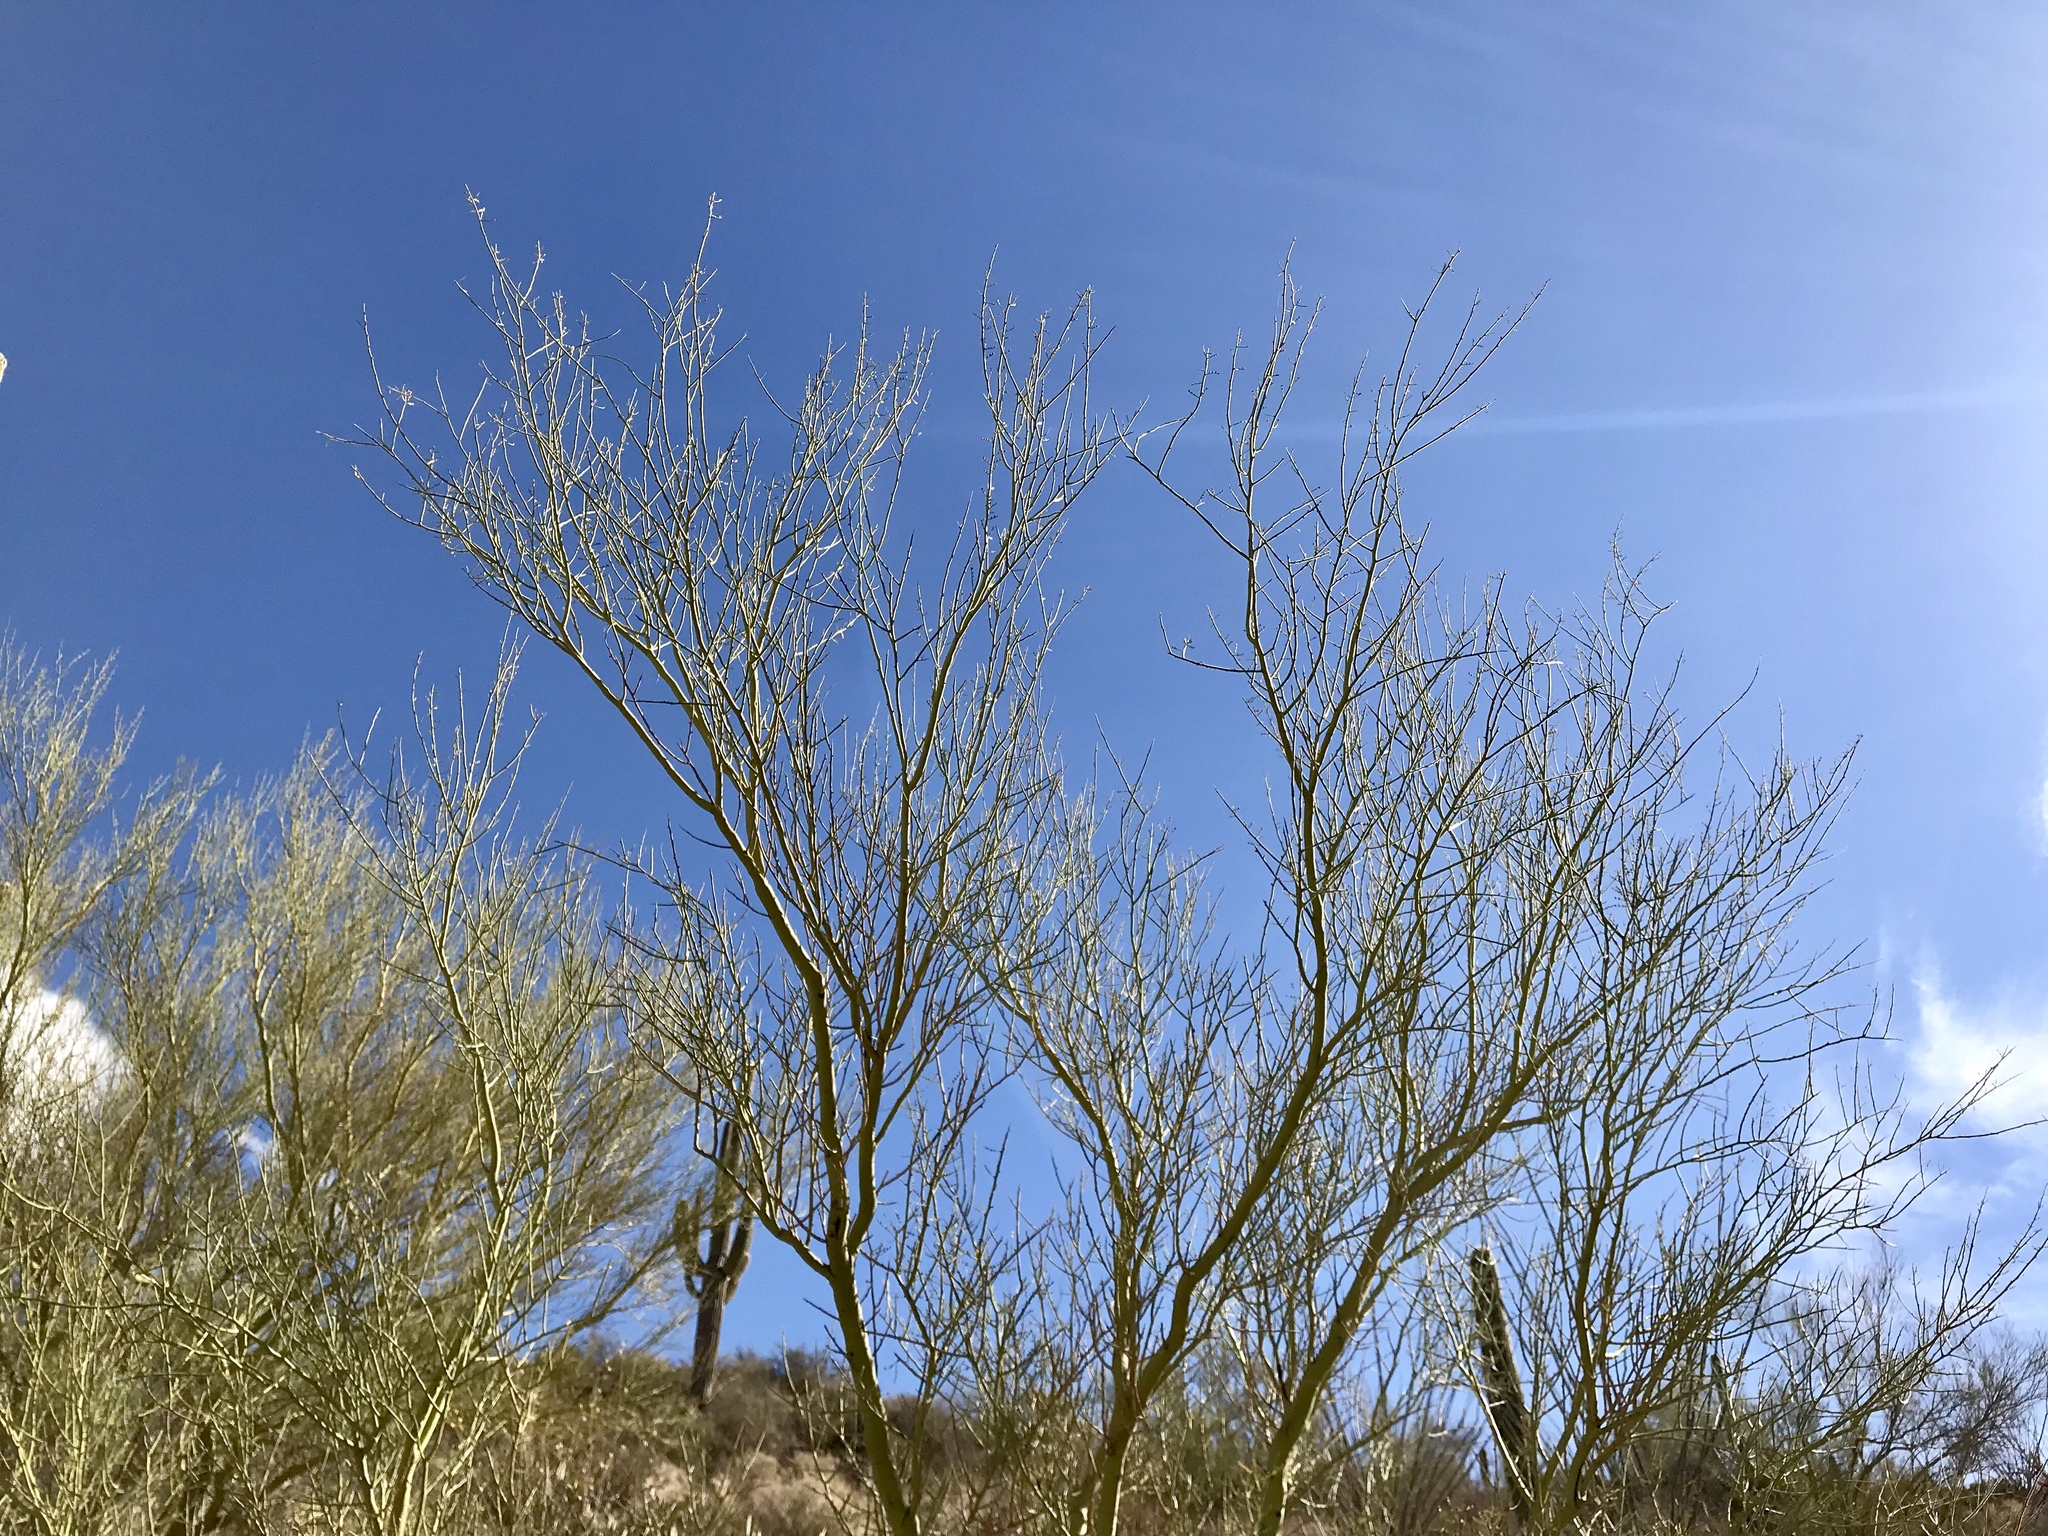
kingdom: Plantae
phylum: Tracheophyta
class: Magnoliopsida
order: Fabales
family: Fabaceae
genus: Parkinsonia
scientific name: Parkinsonia microphylla
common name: Yellow paloverde
